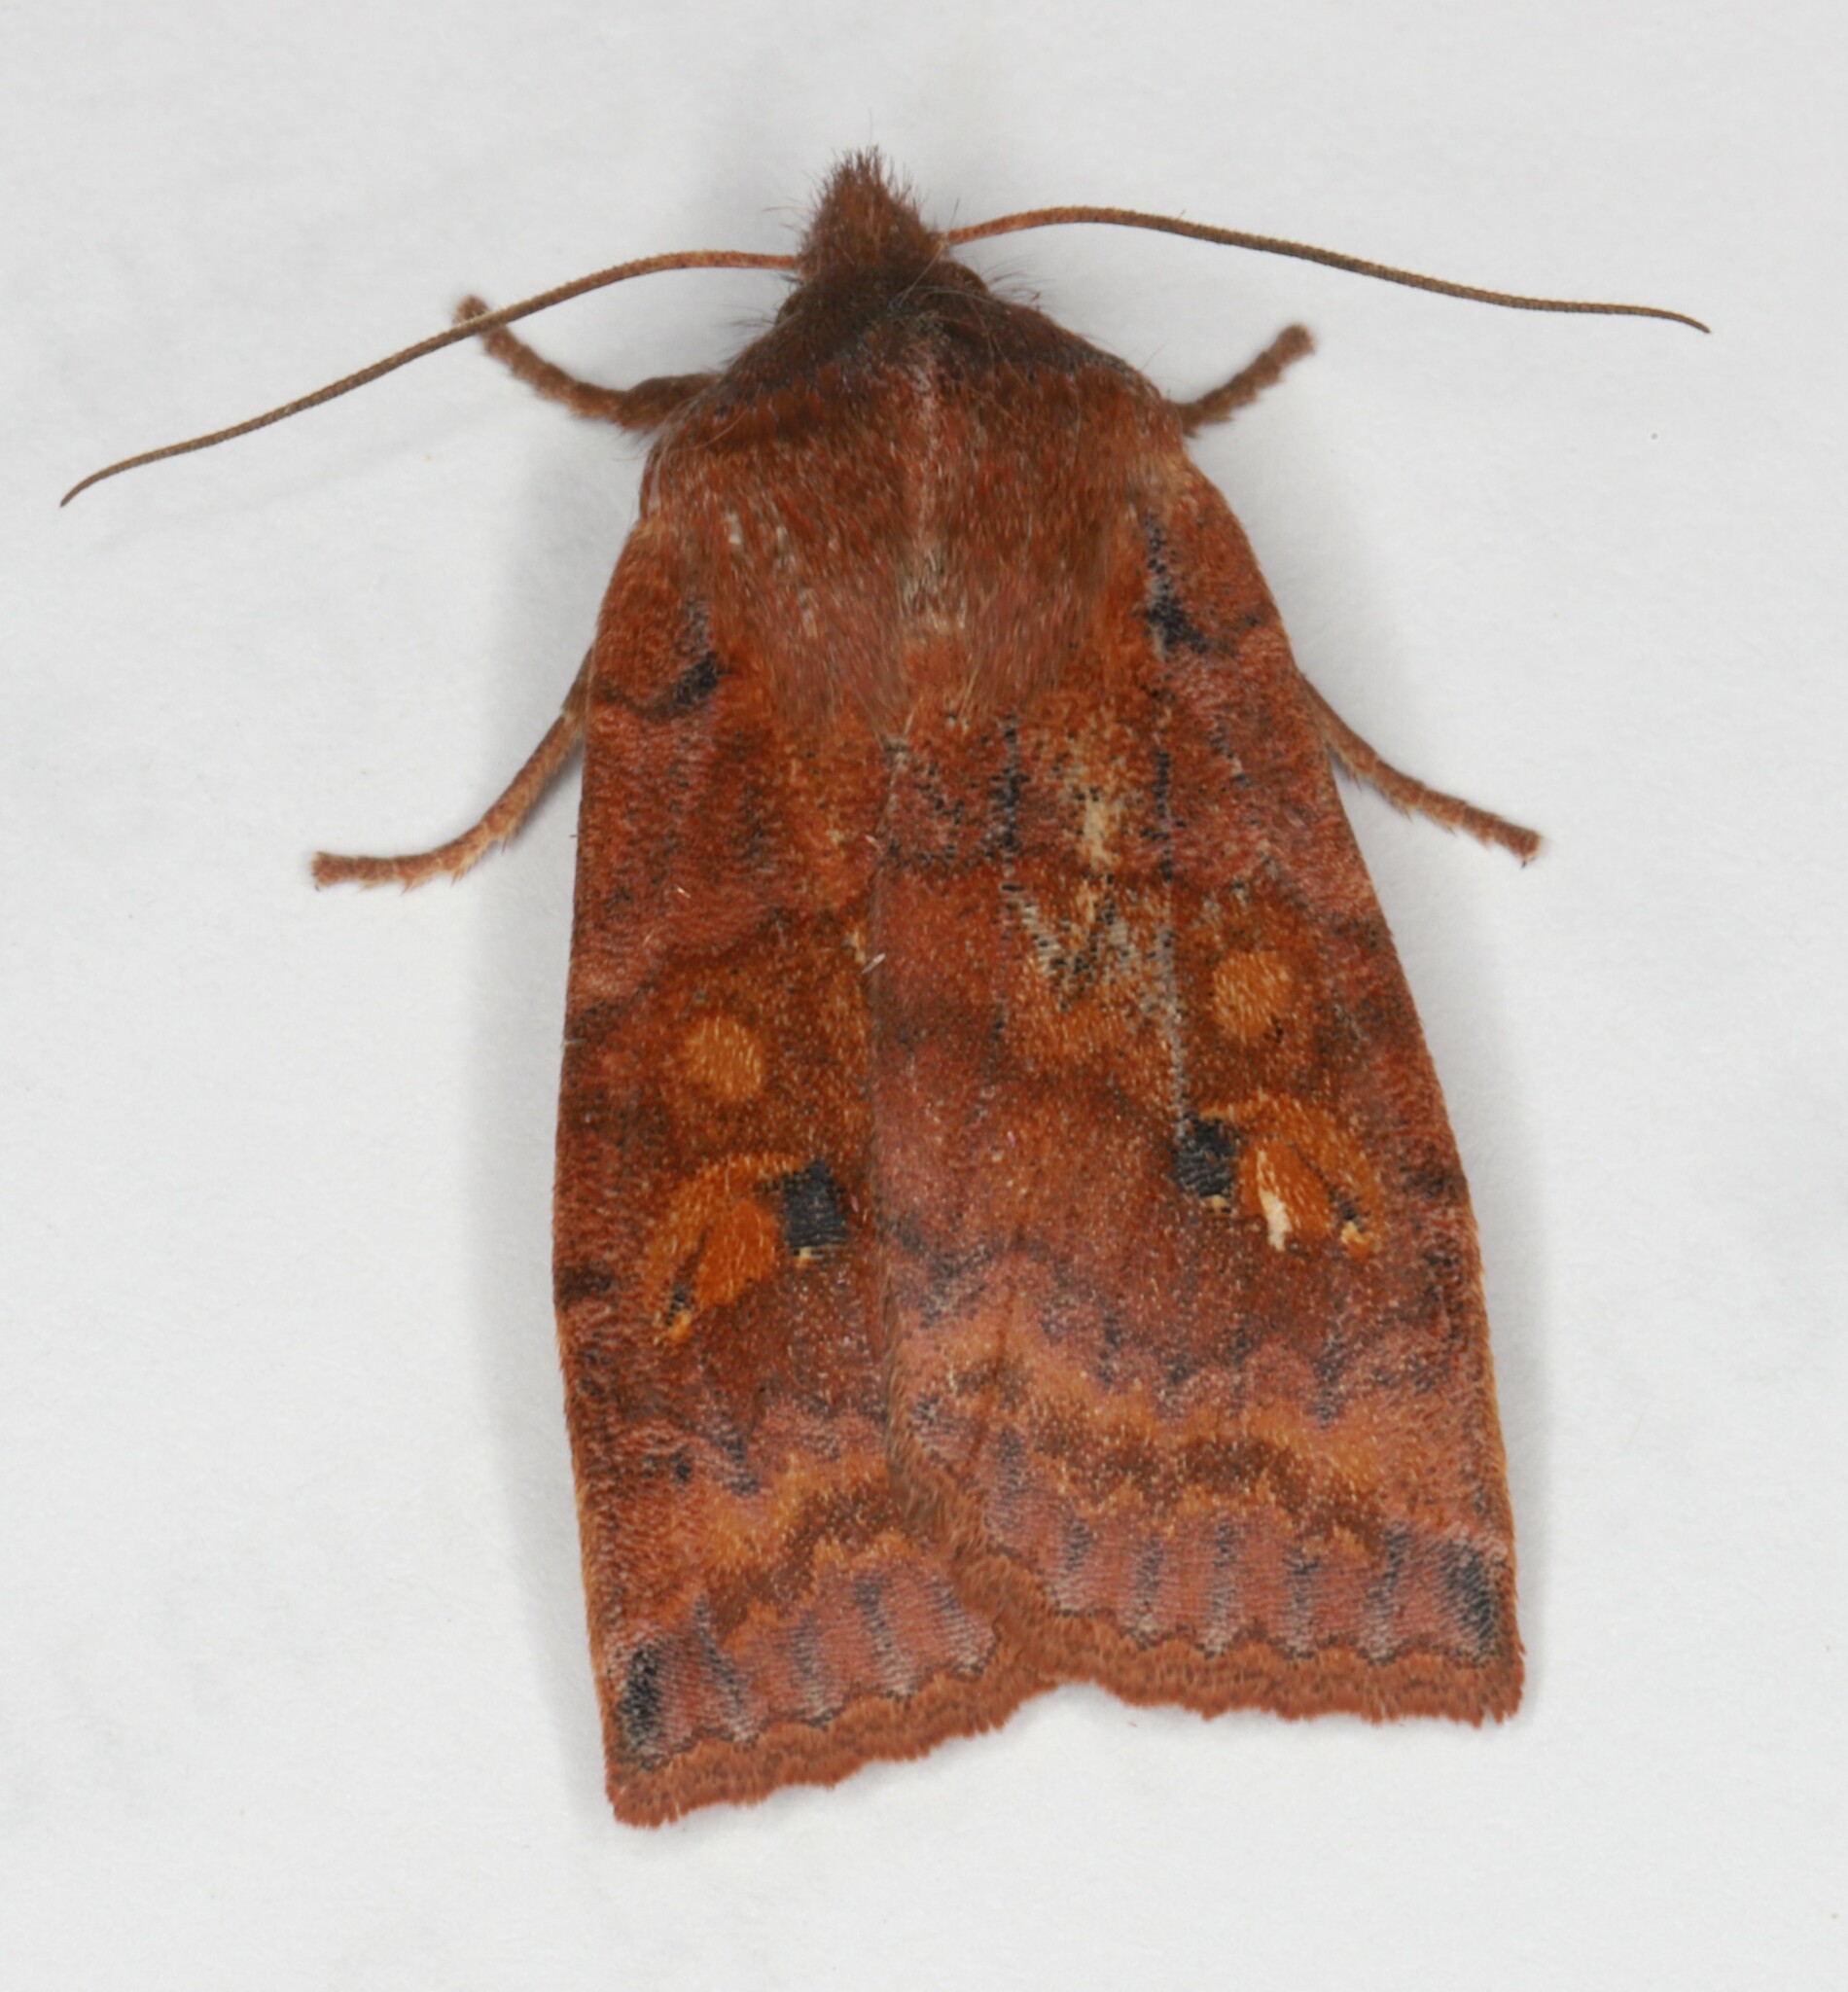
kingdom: Animalia
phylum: Arthropoda
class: Insecta
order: Lepidoptera
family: Noctuidae
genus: Eupsilia
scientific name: Eupsilia tristigmata
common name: Three-spotted sallow
